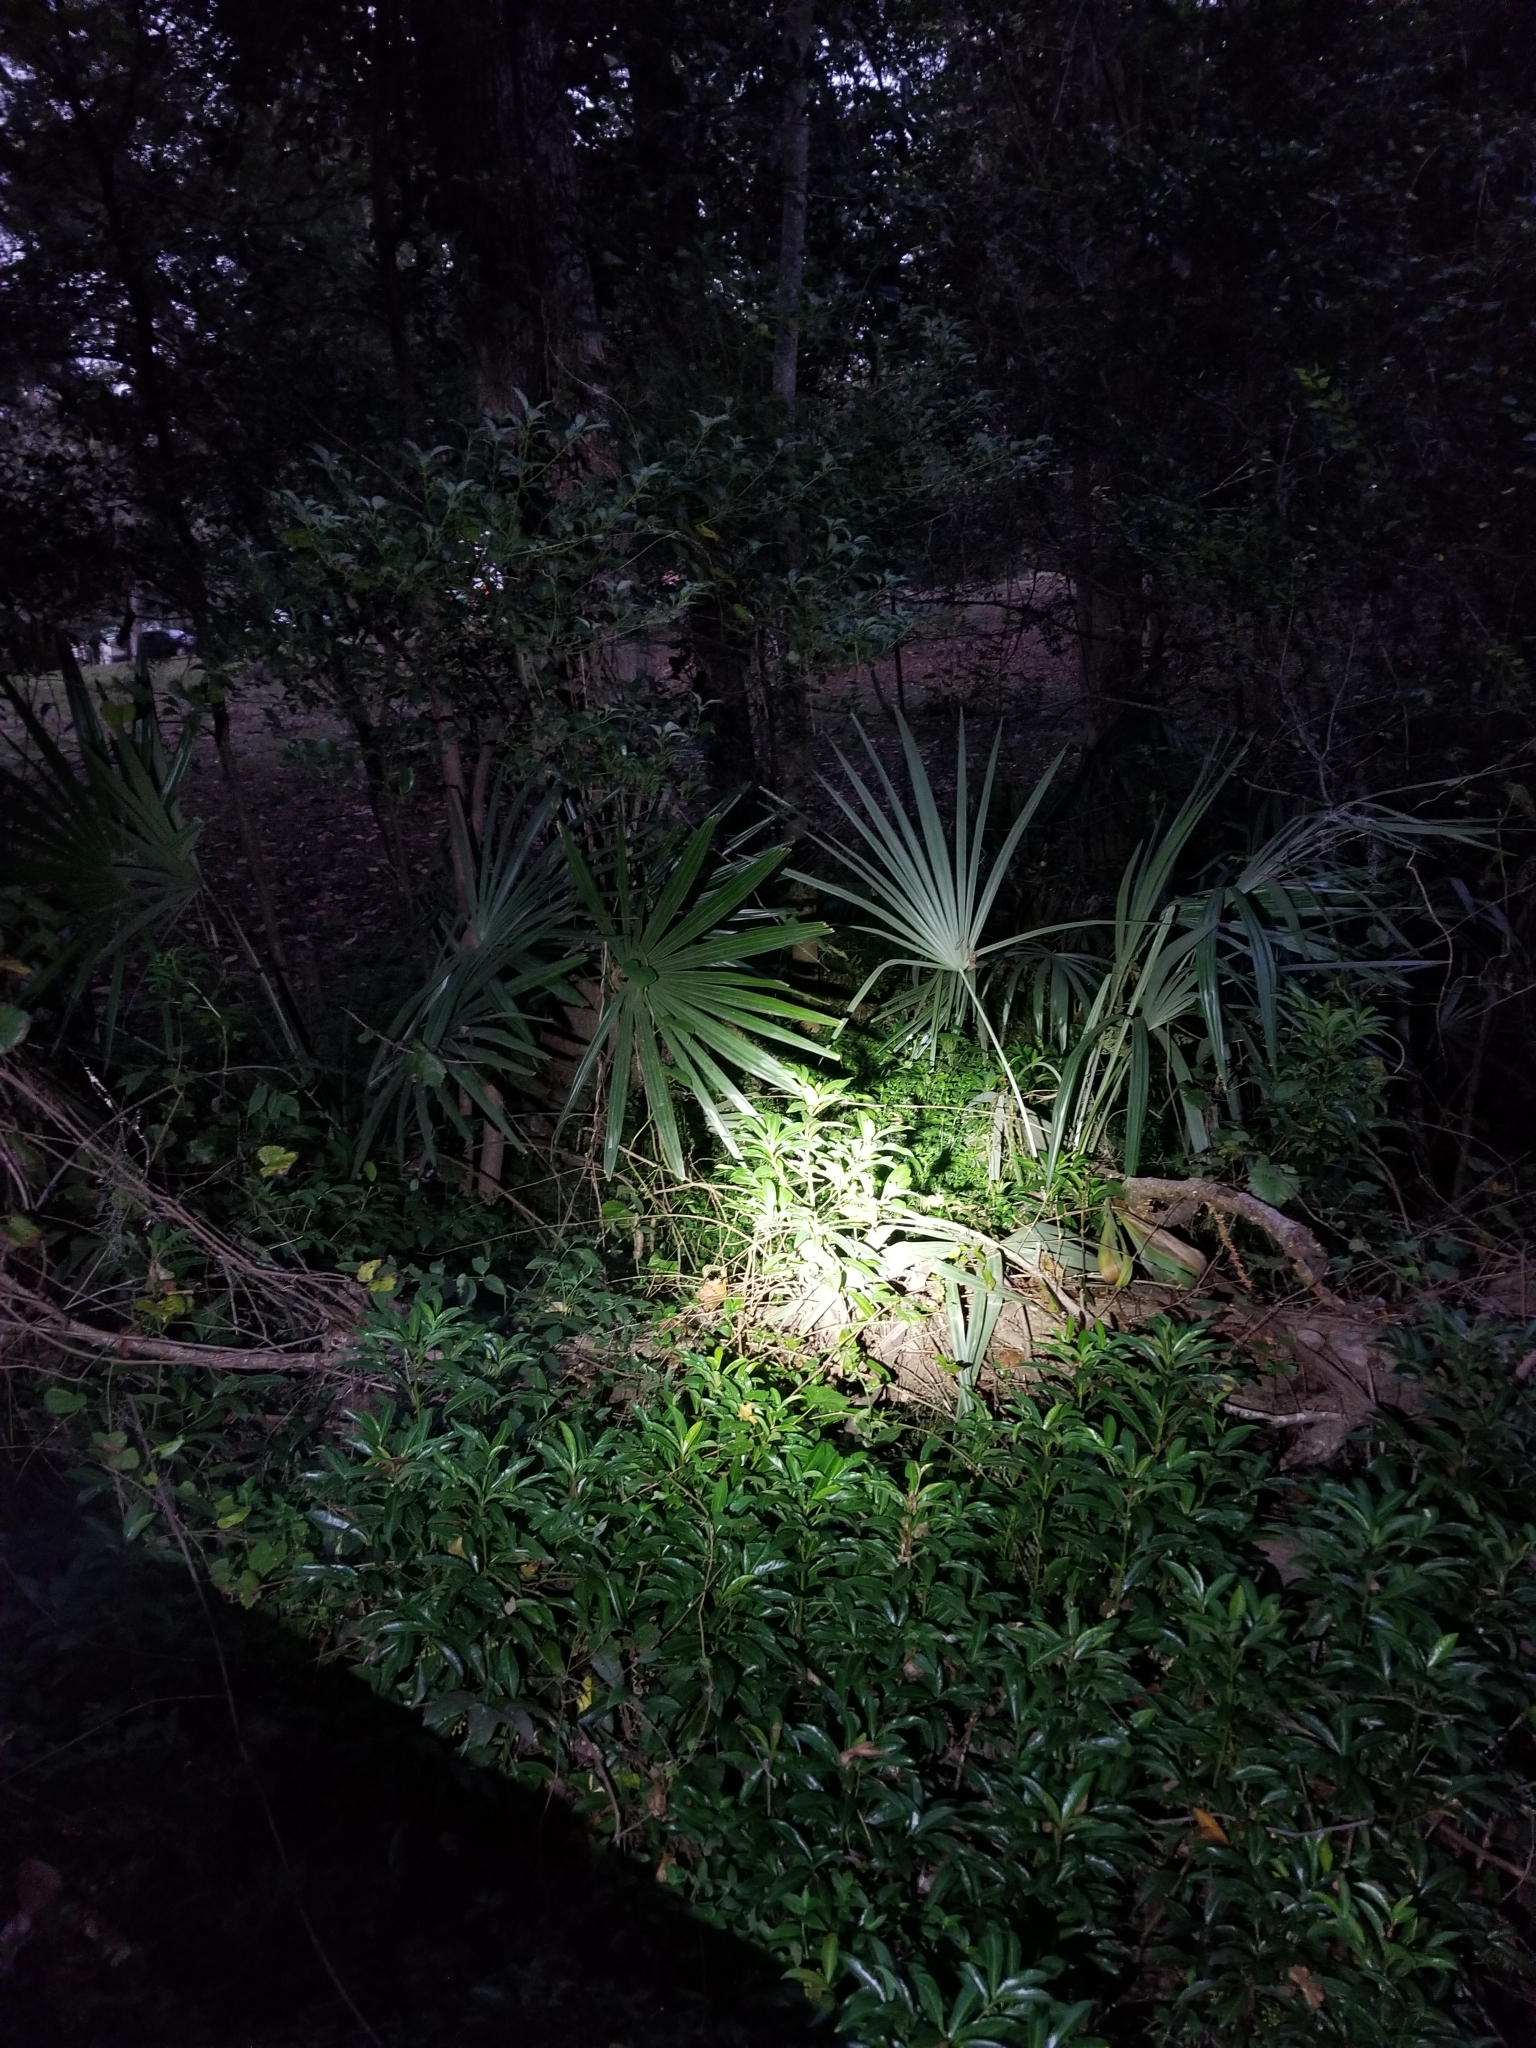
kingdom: Plantae
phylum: Tracheophyta
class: Liliopsida
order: Arecales
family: Arecaceae
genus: Rhapidophyllum
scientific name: Rhapidophyllum hystrix
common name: Porcupine palm
